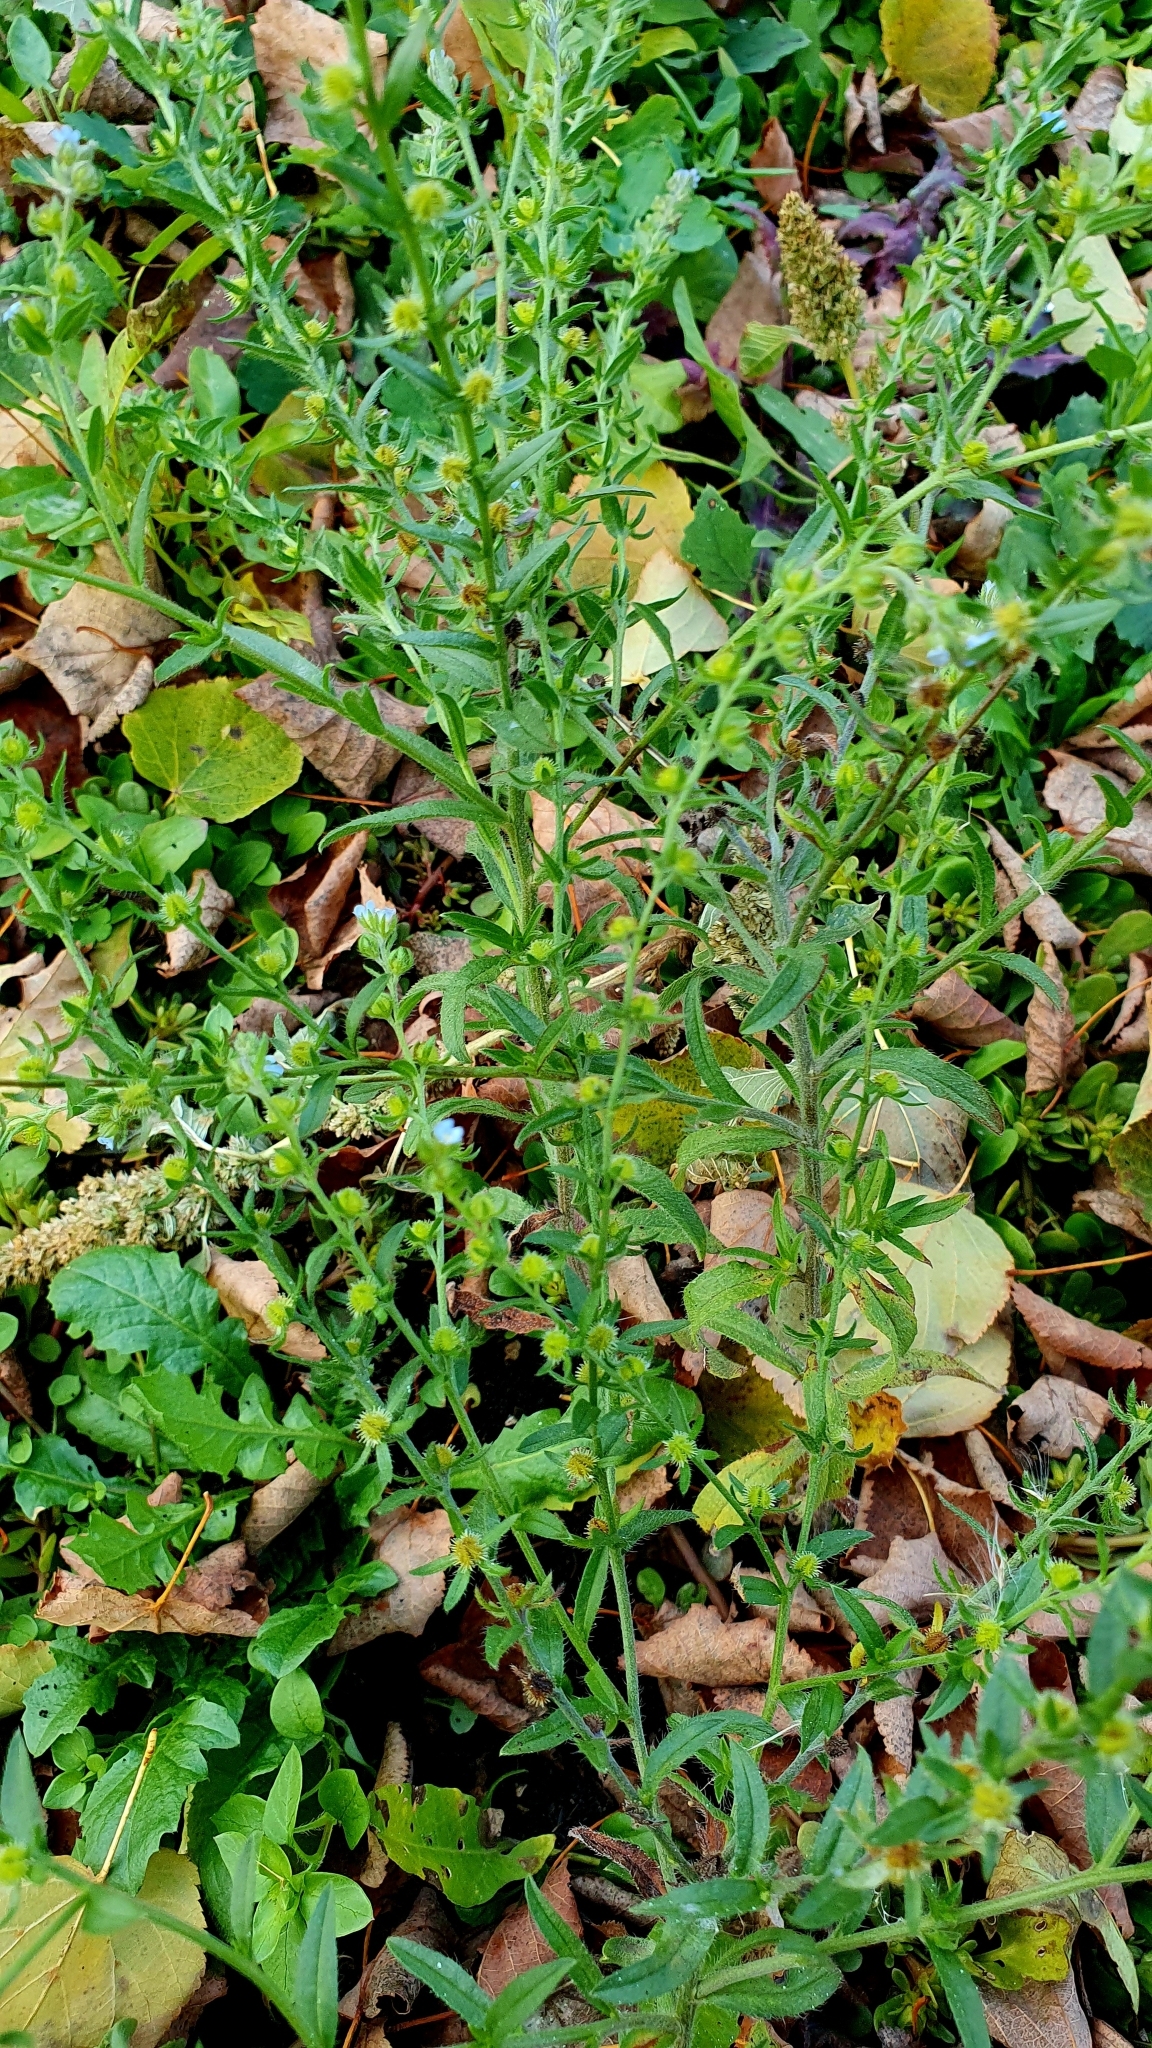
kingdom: Plantae
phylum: Tracheophyta
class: Magnoliopsida
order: Boraginales
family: Boraginaceae
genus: Lappula
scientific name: Lappula squarrosa
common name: European stickseed
